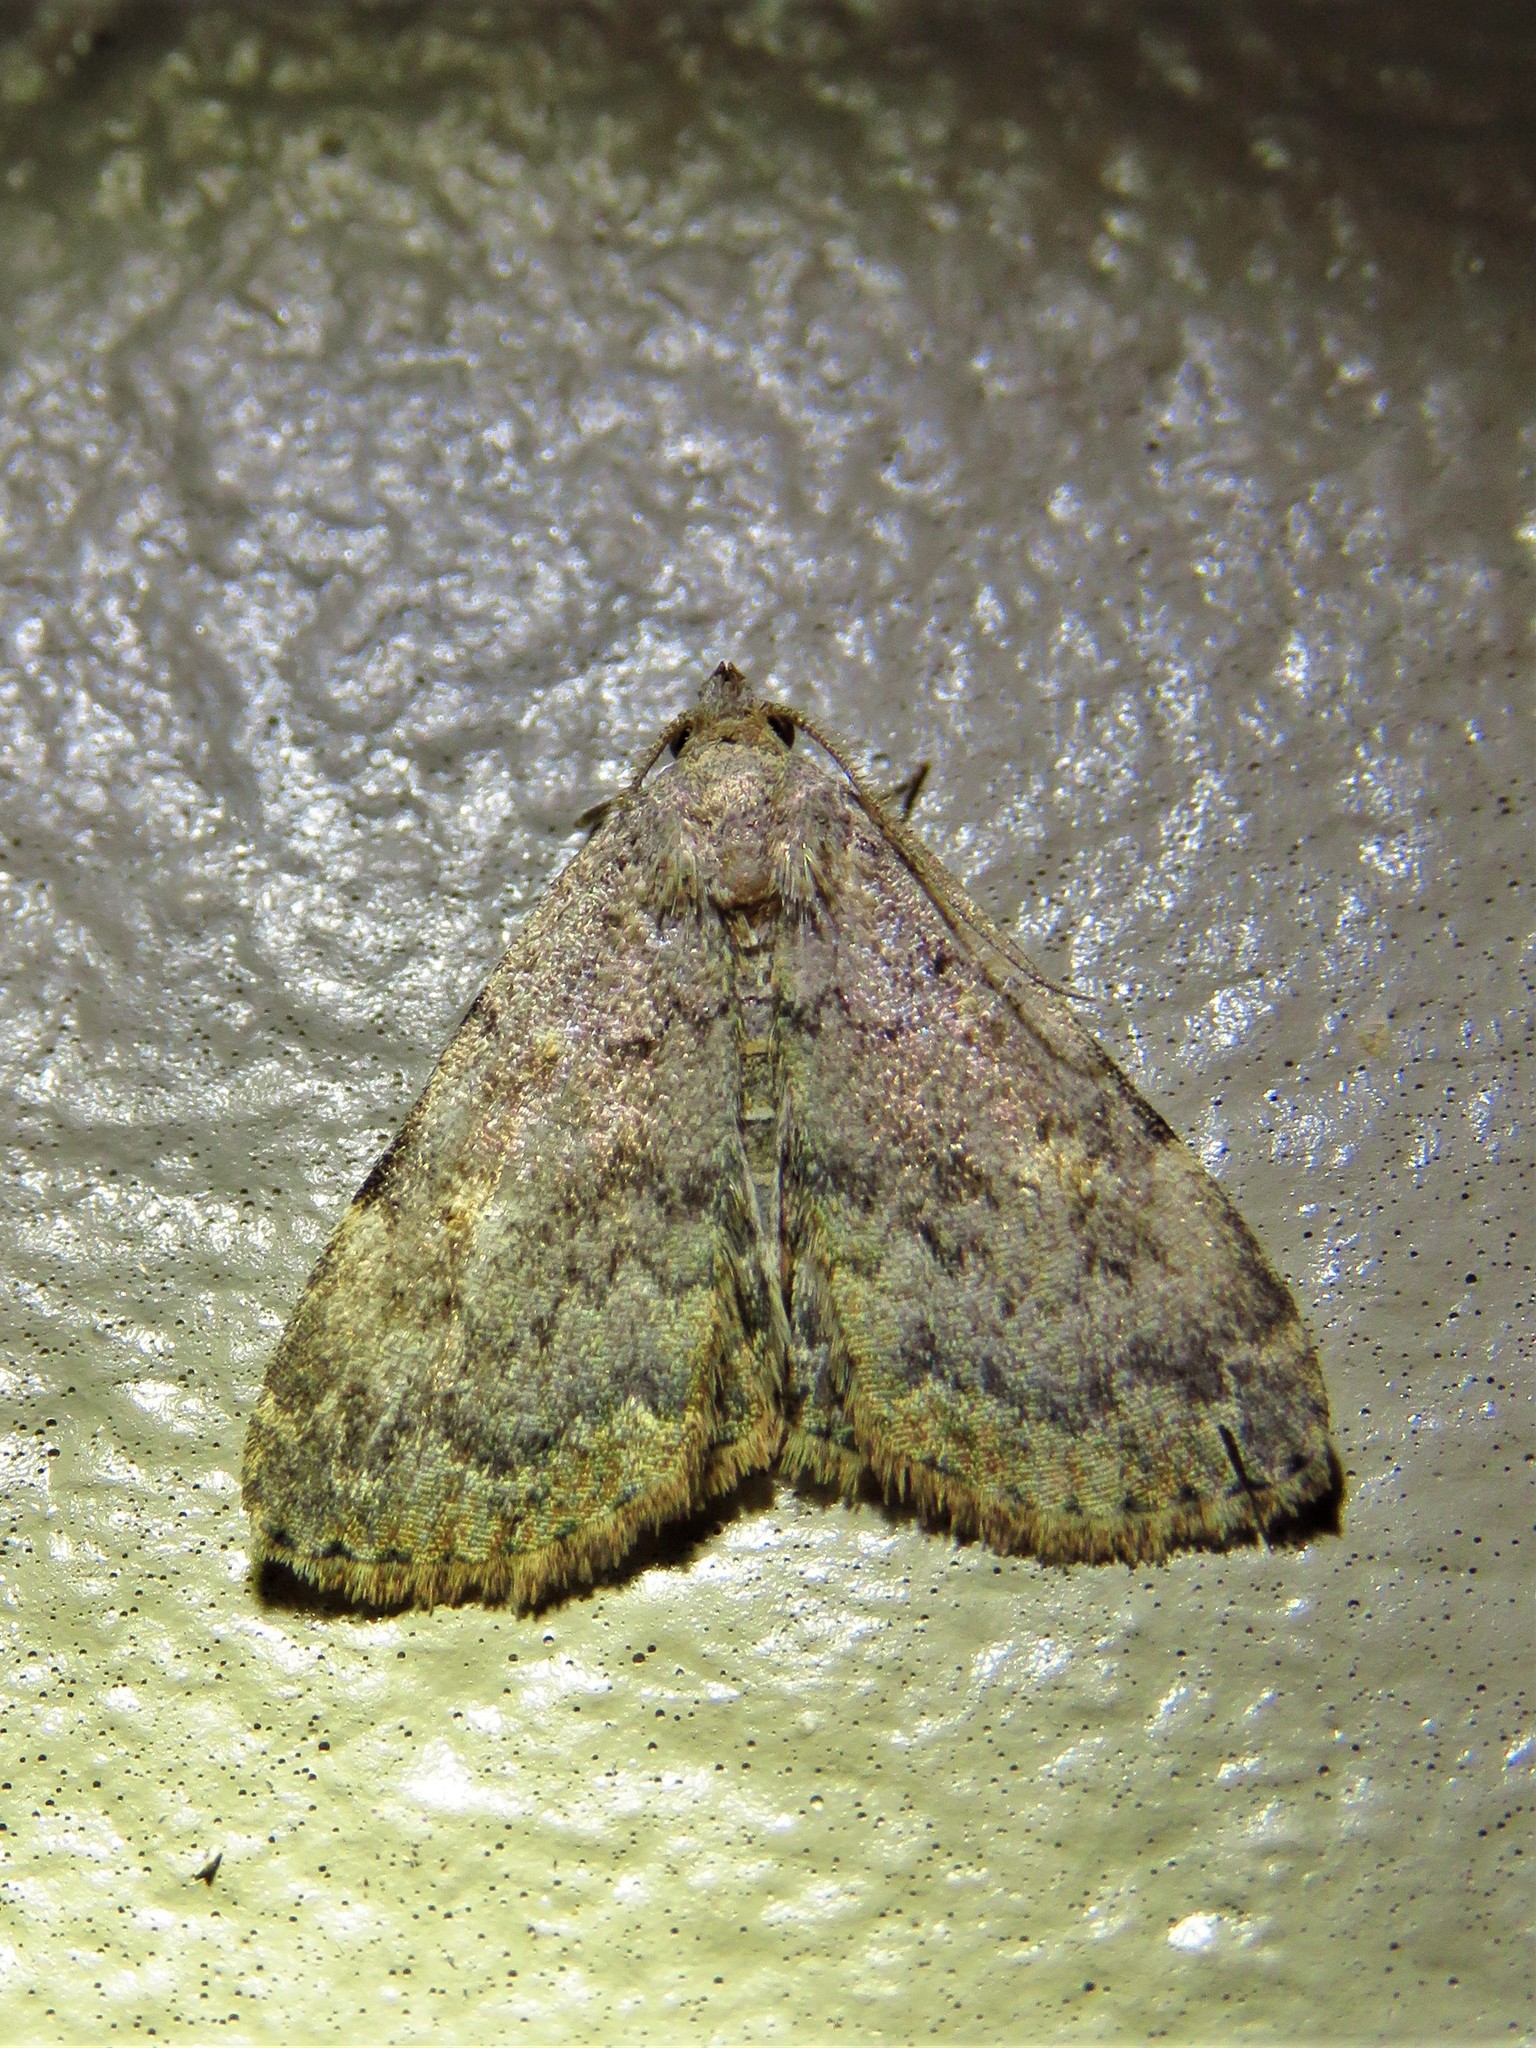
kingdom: Animalia
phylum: Arthropoda
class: Insecta
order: Lepidoptera
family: Erebidae
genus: Idia
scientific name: Idia aemula
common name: Common idia moth
